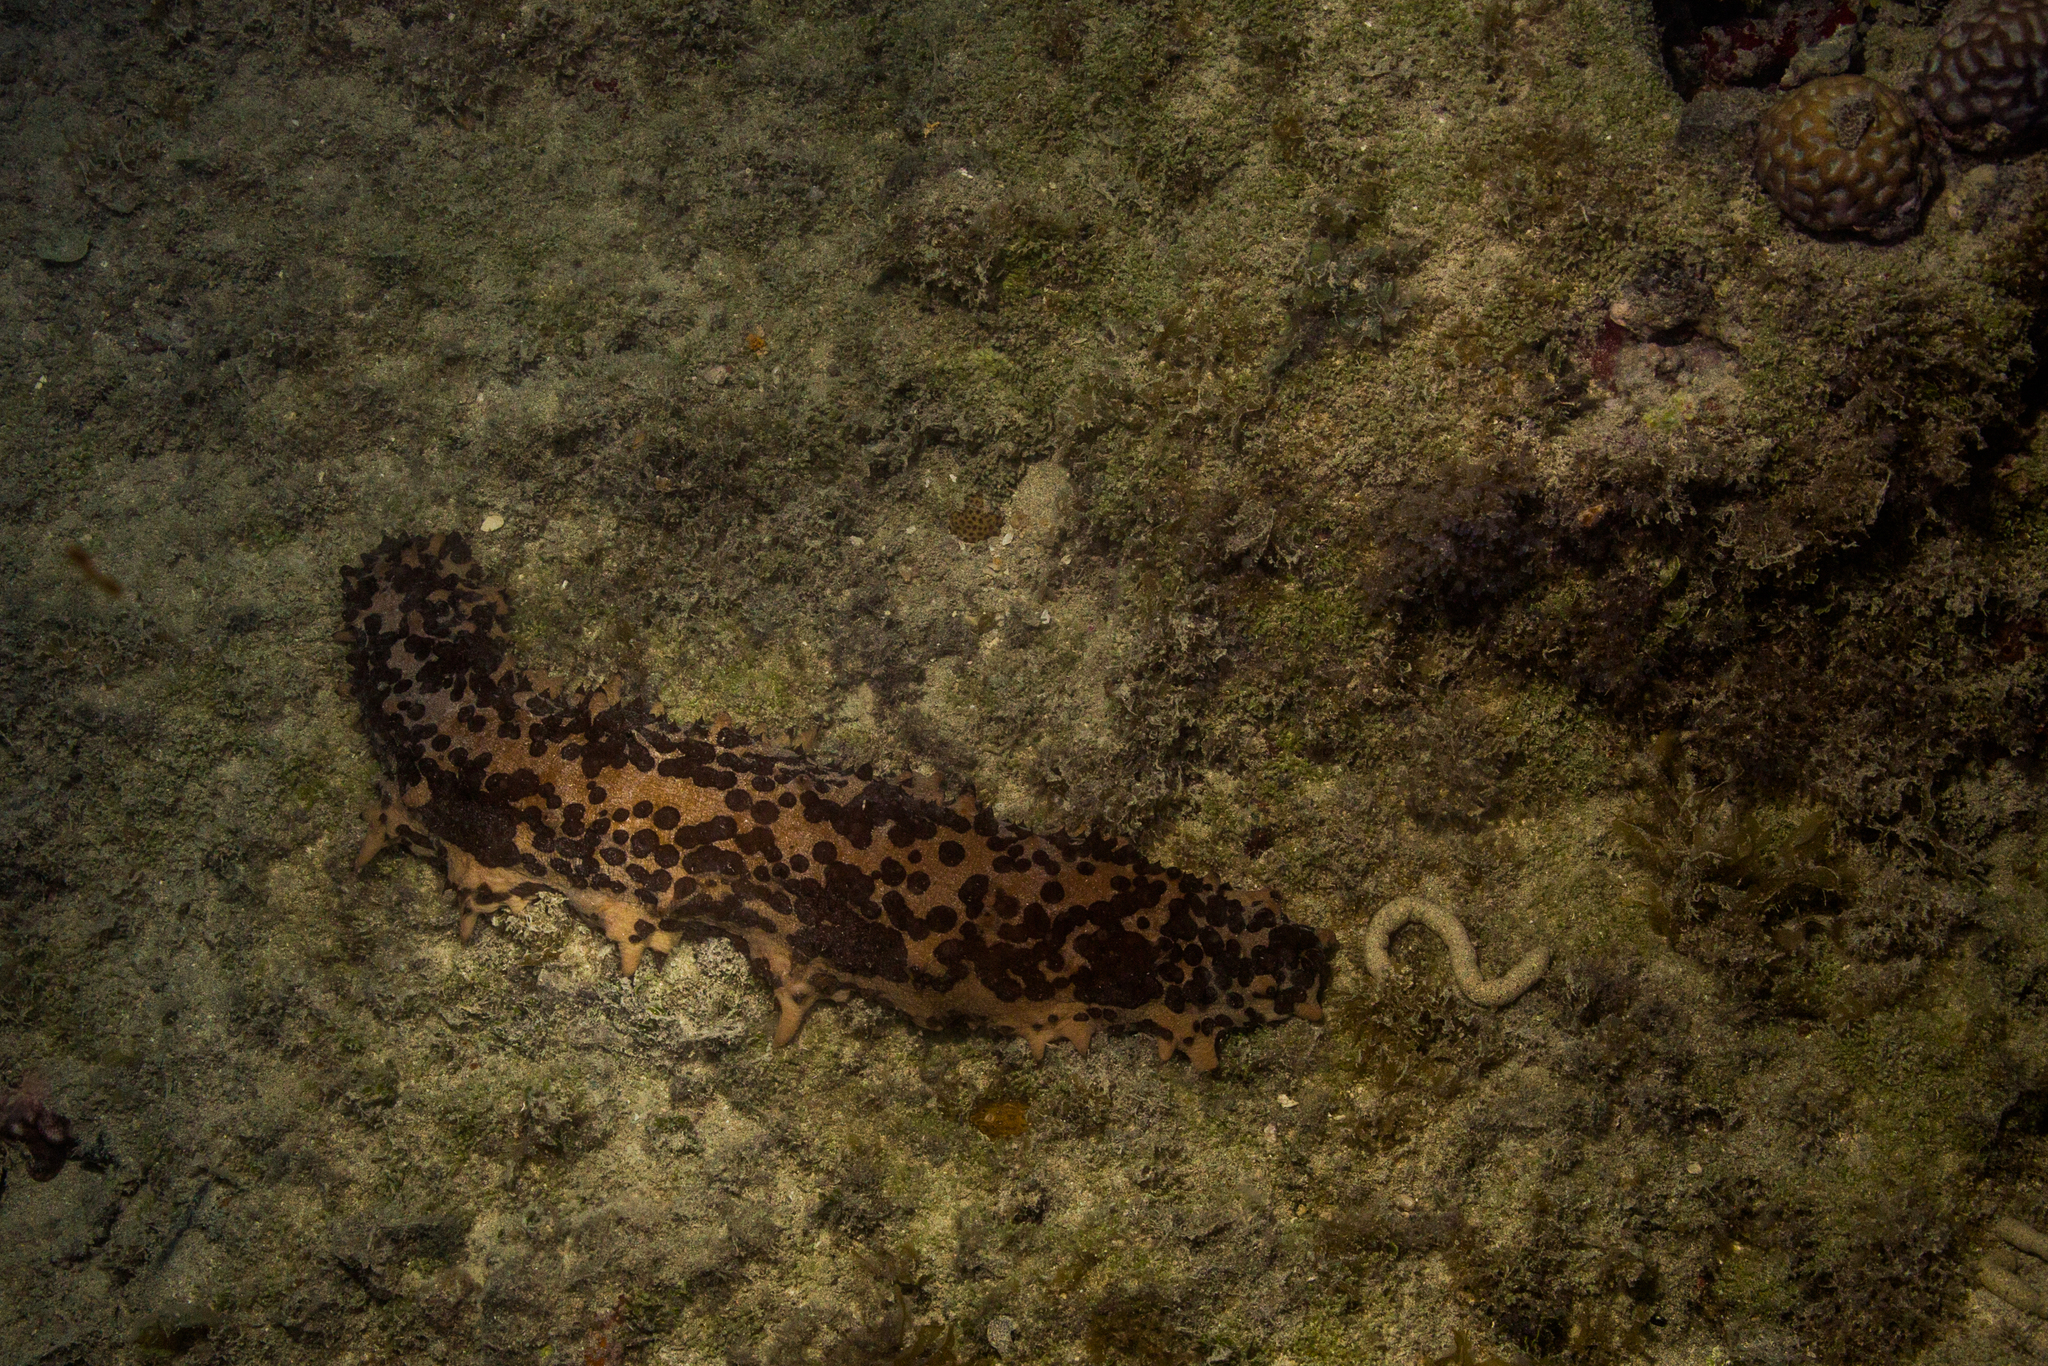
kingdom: Animalia
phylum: Echinodermata
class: Holothuroidea
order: Synallactida
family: Stichopodidae
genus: Isostichopus
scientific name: Isostichopus badionotus
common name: Chocolate chip cucumber
